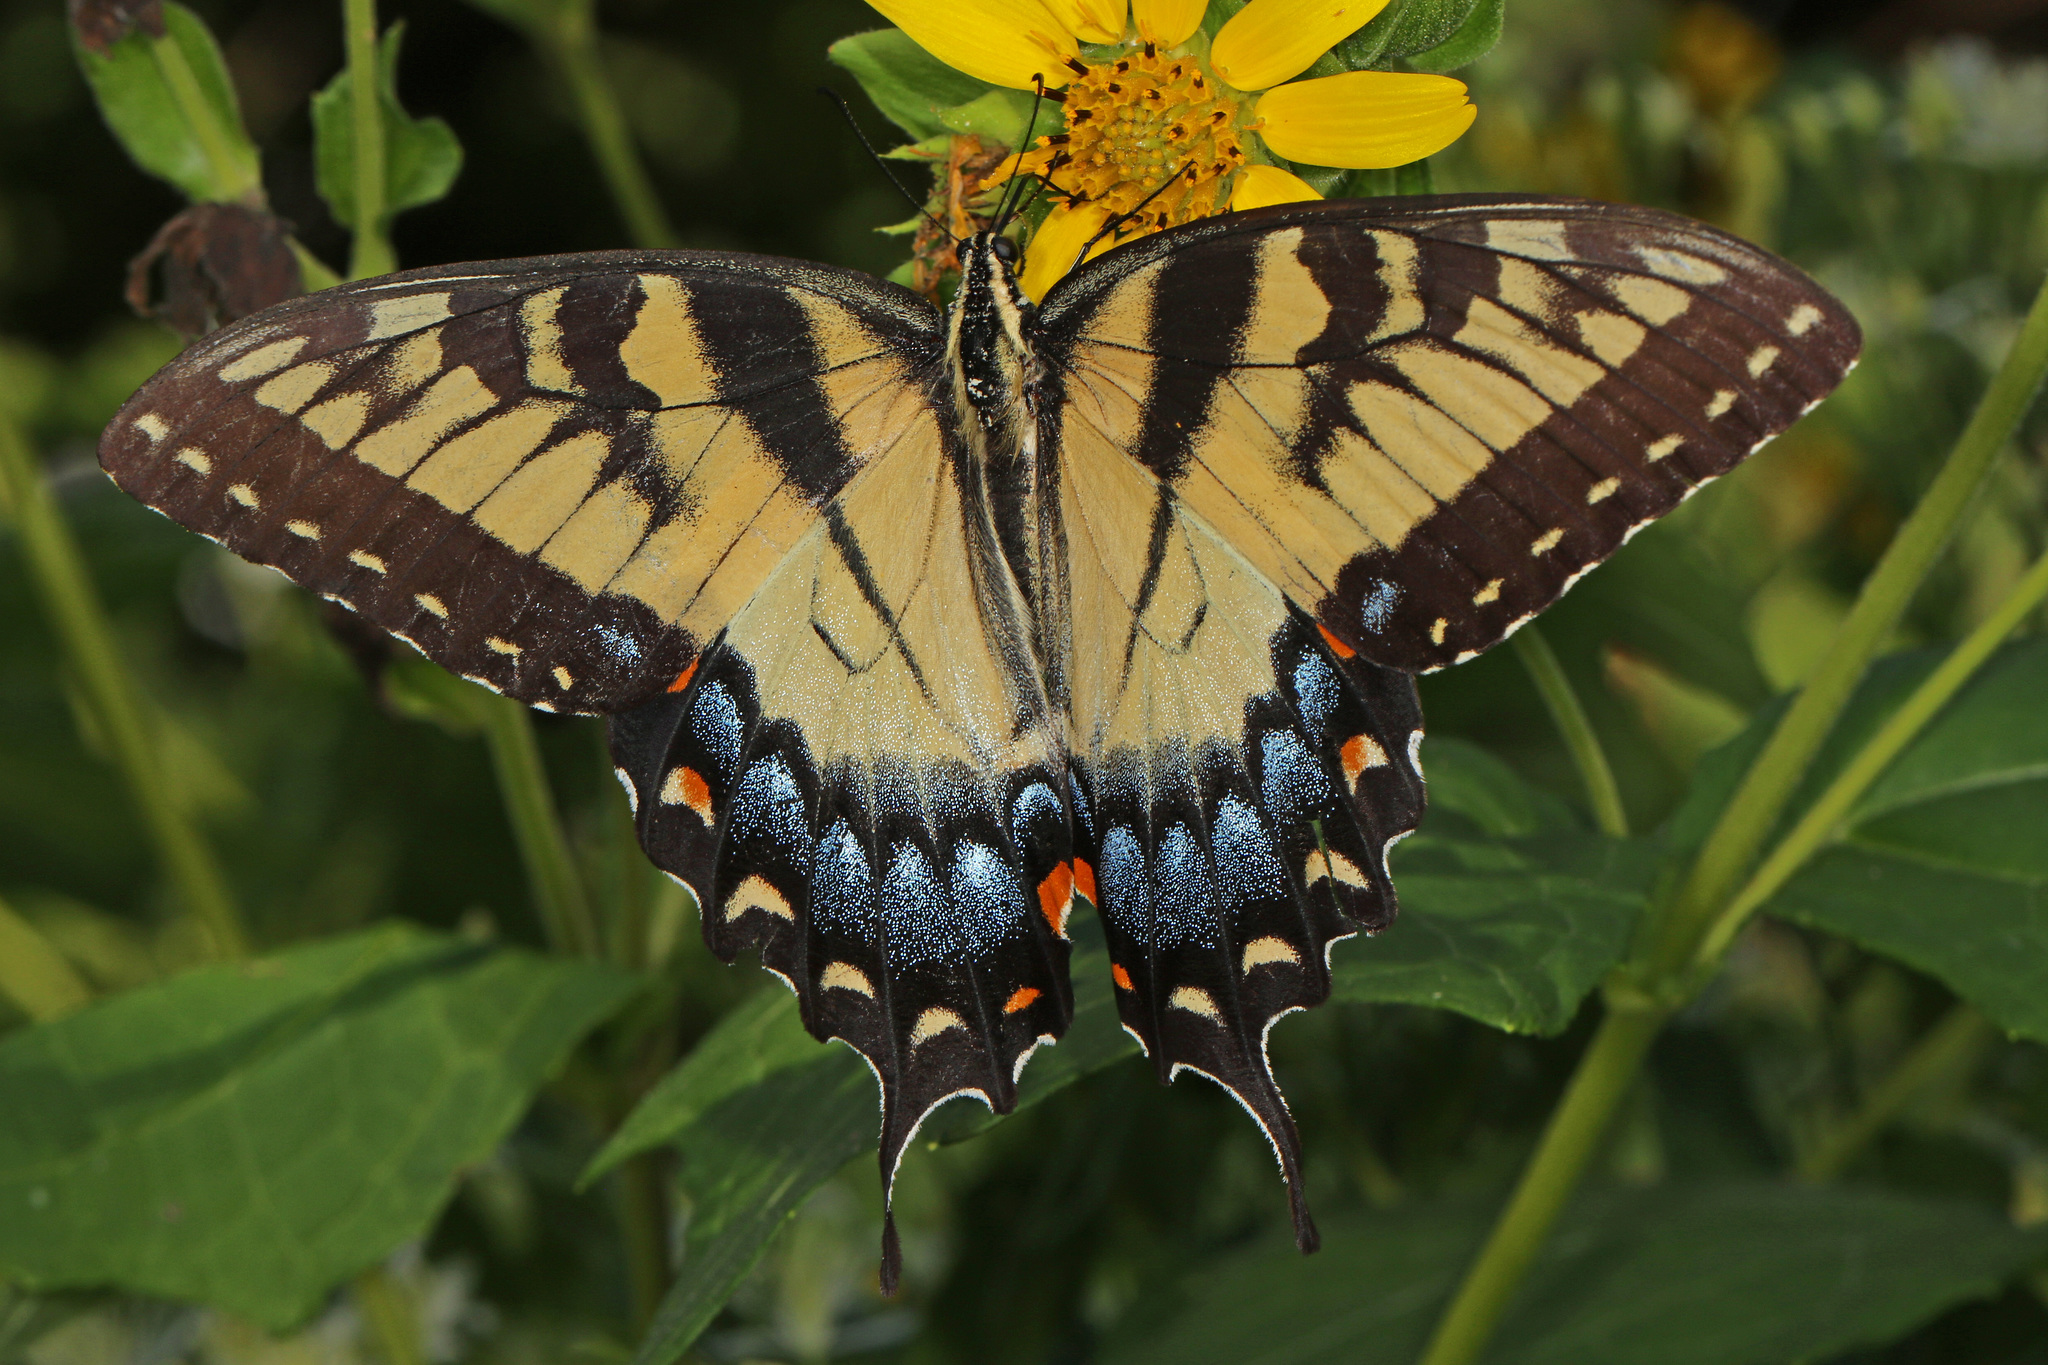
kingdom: Animalia
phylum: Arthropoda
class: Insecta
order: Lepidoptera
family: Papilionidae
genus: Papilio
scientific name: Papilio glaucus
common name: Tiger swallowtail
